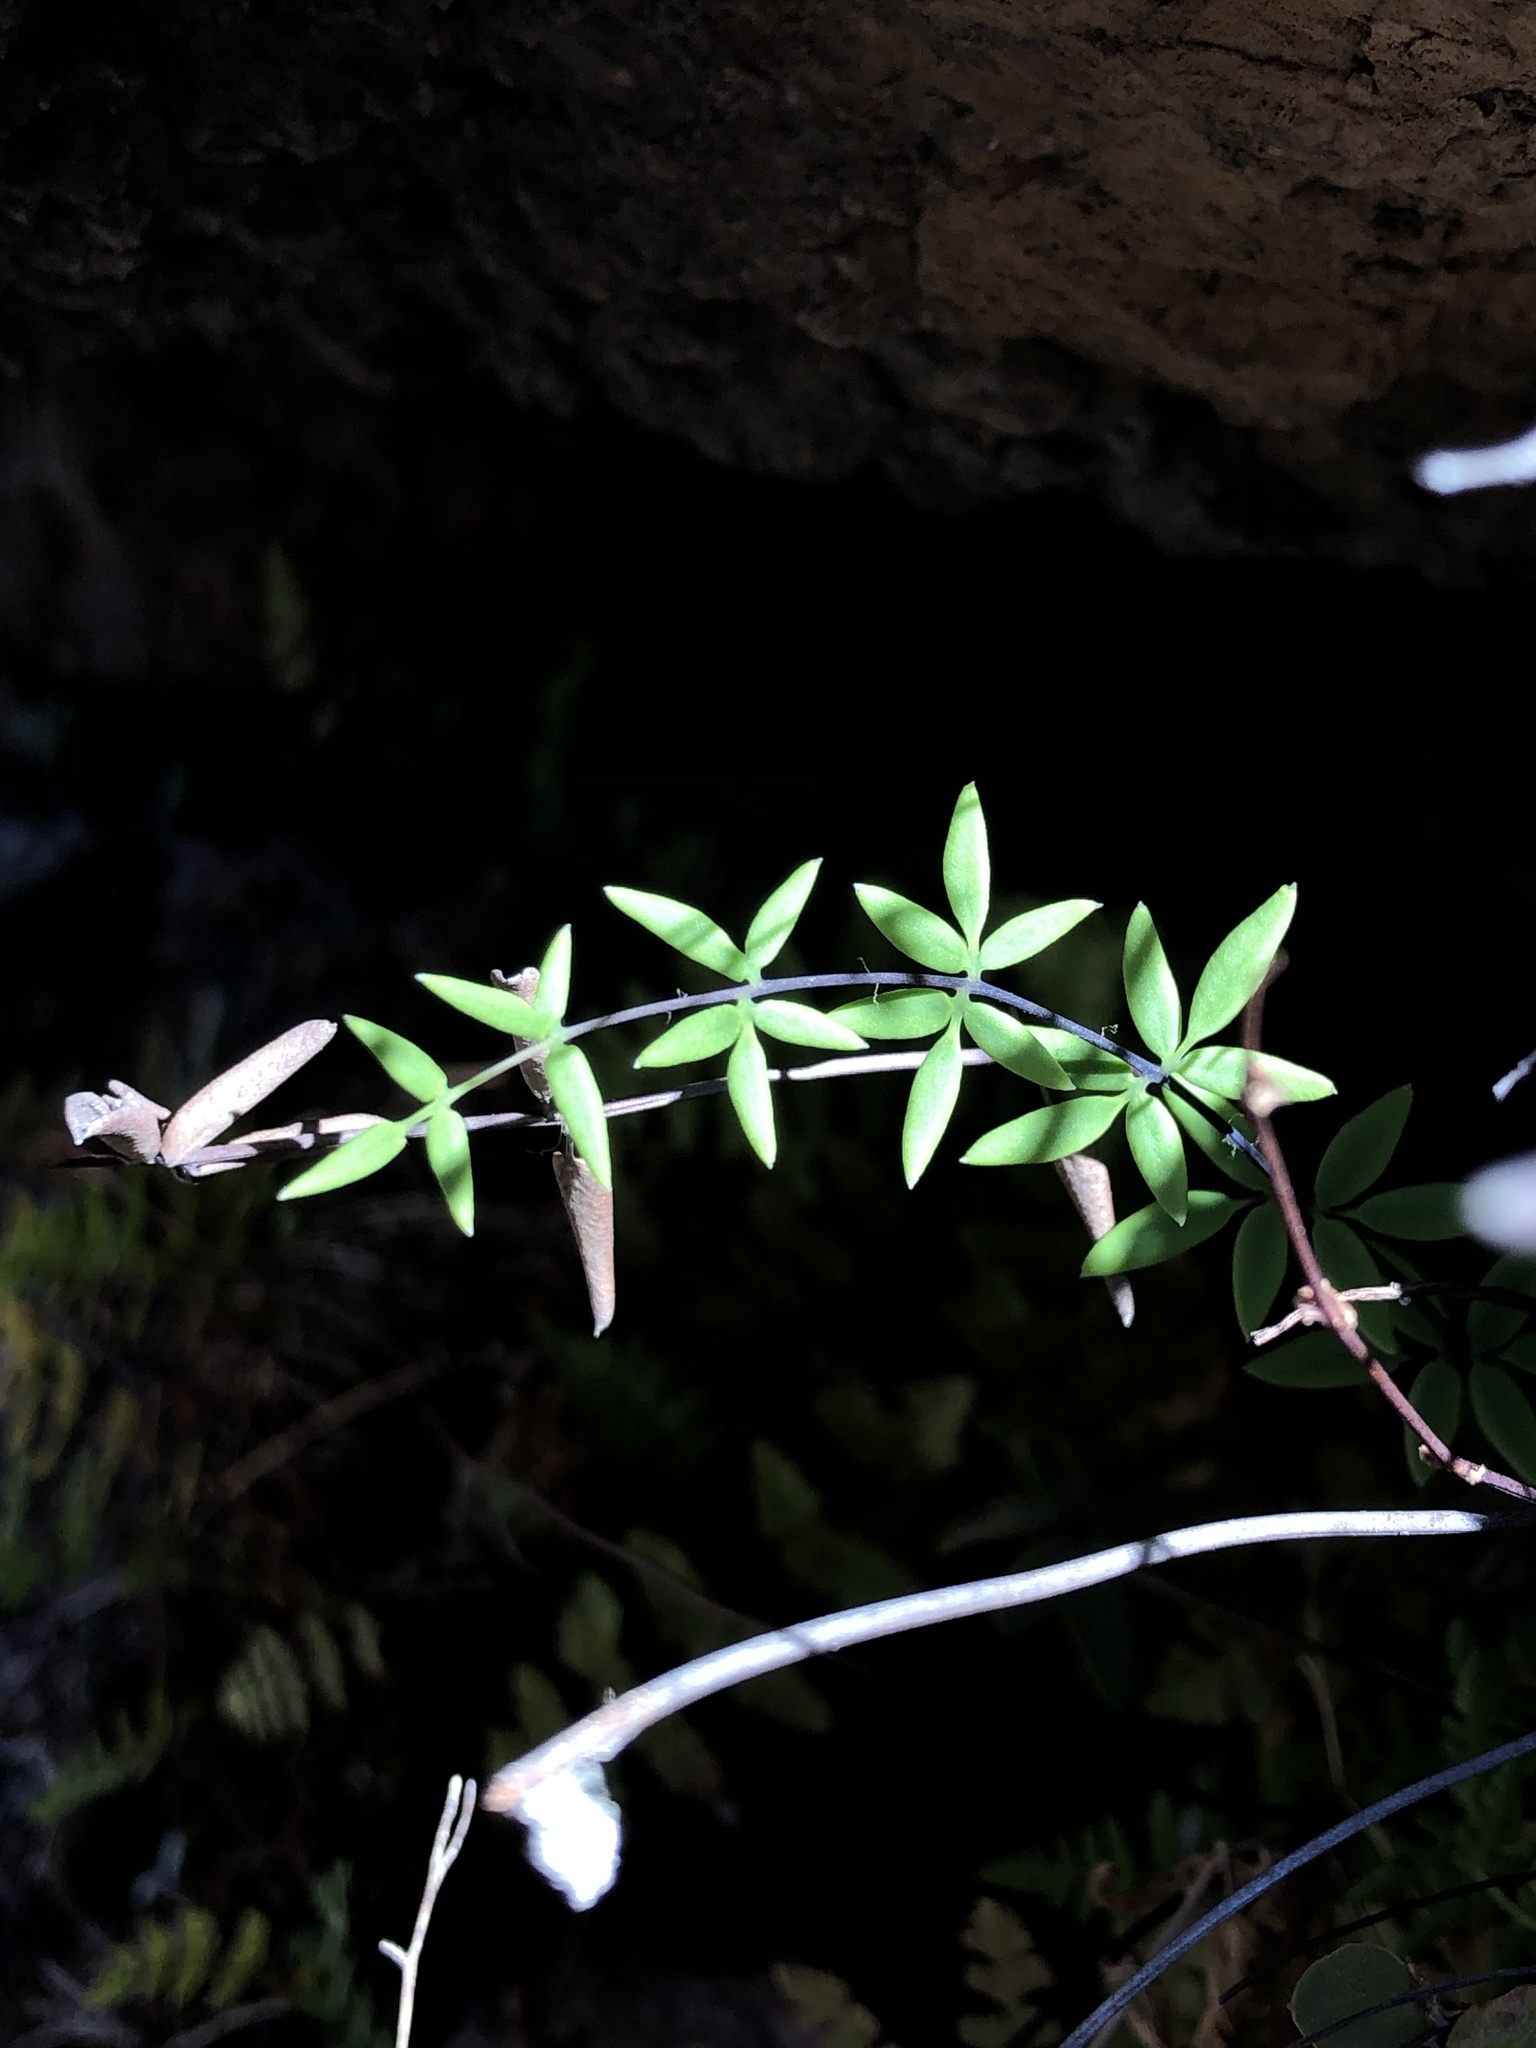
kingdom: Plantae
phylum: Tracheophyta
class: Polypodiopsida
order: Polypodiales
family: Pteridaceae
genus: Pellaea
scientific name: Pellaea wrightiana
